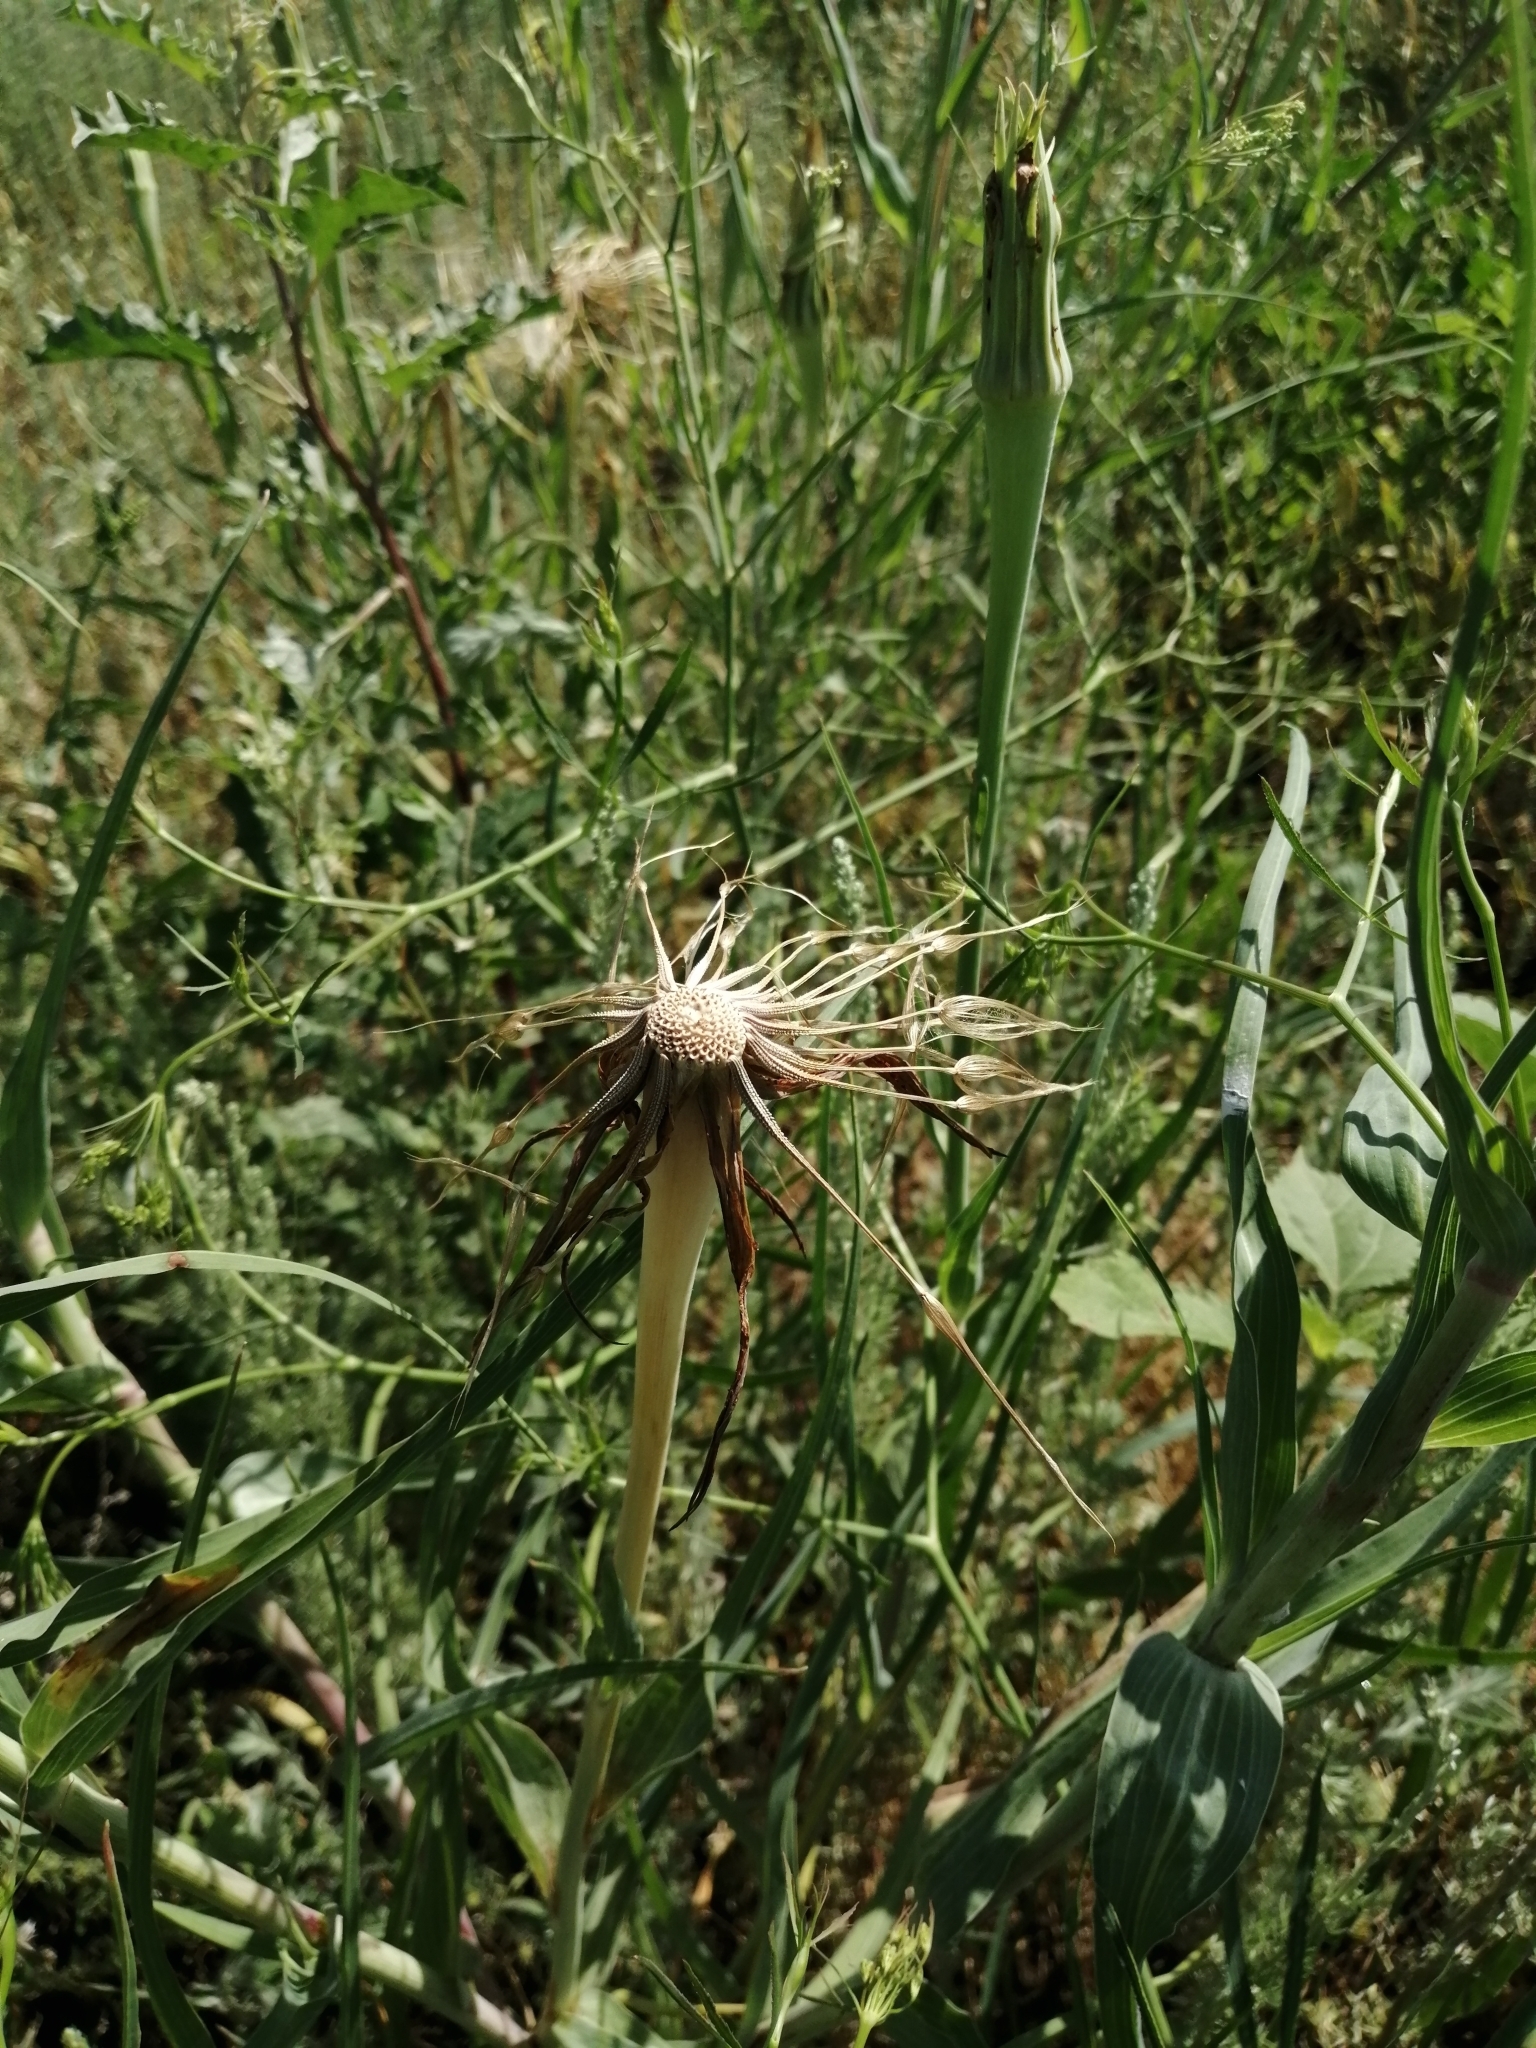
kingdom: Plantae
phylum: Tracheophyta
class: Magnoliopsida
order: Asterales
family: Asteraceae
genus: Tragopogon
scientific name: Tragopogon dubius
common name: Yellow salsify
